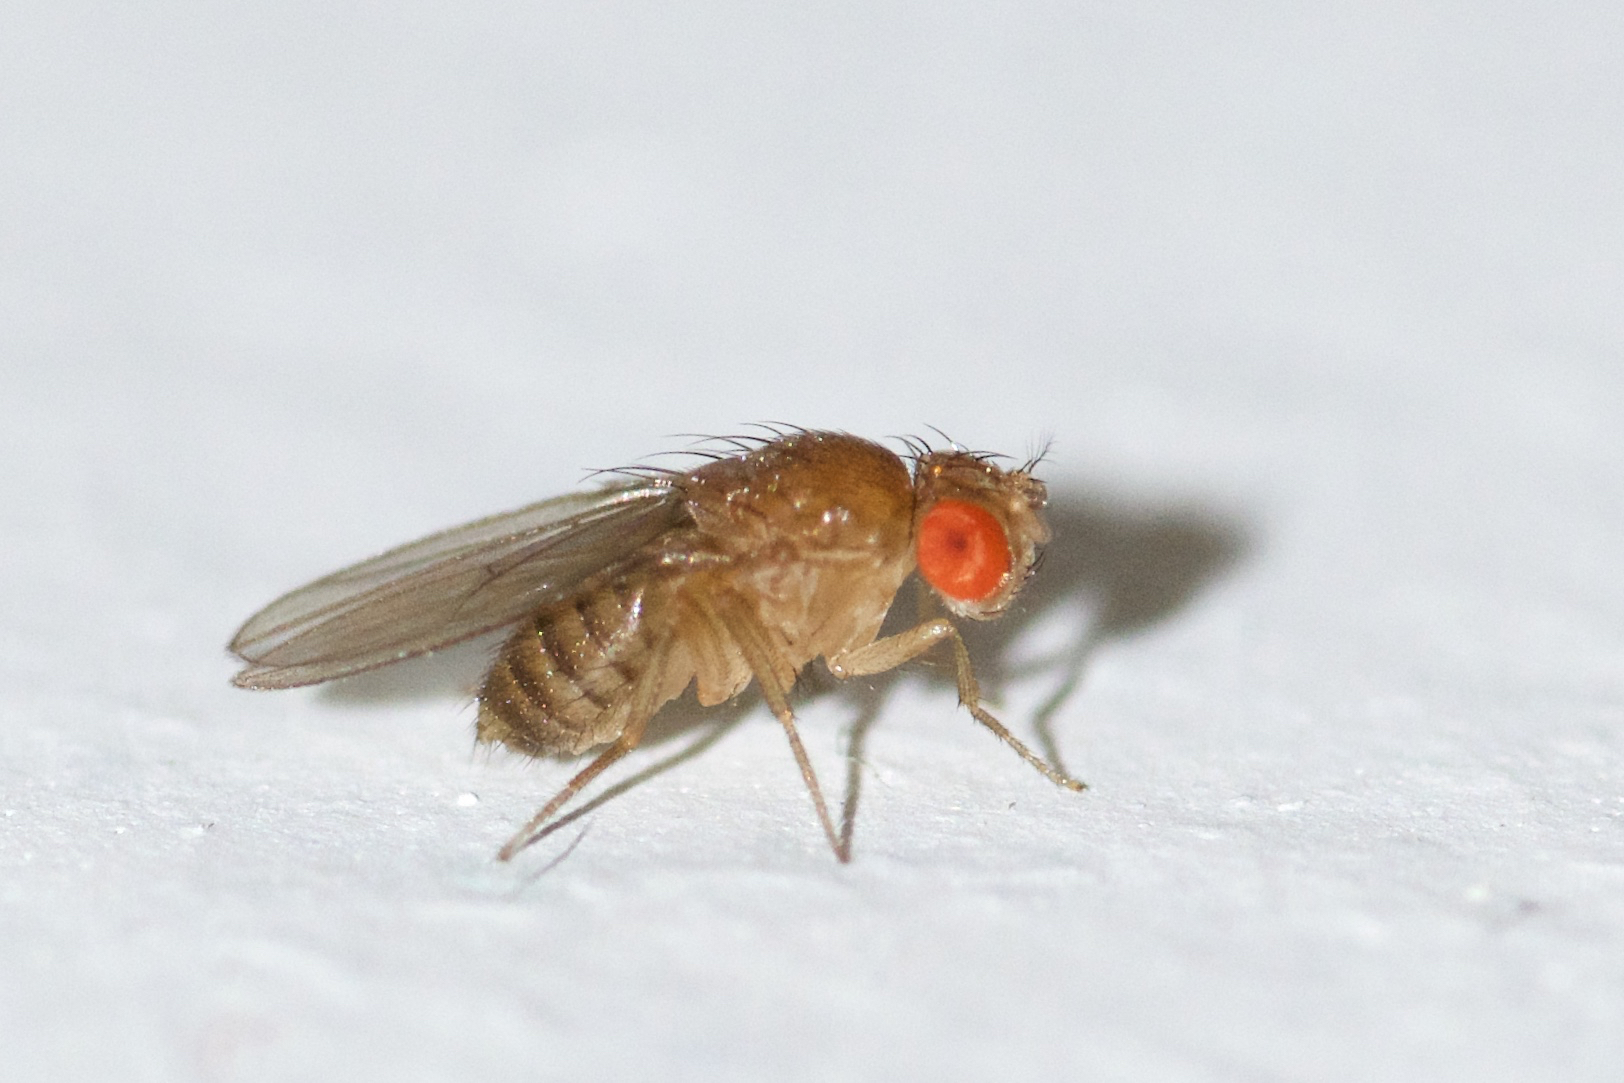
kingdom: Animalia
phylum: Arthropoda
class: Insecta
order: Diptera
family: Drosophilidae
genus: Drosophila
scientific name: Drosophila melanogaster
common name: Pomace fly
